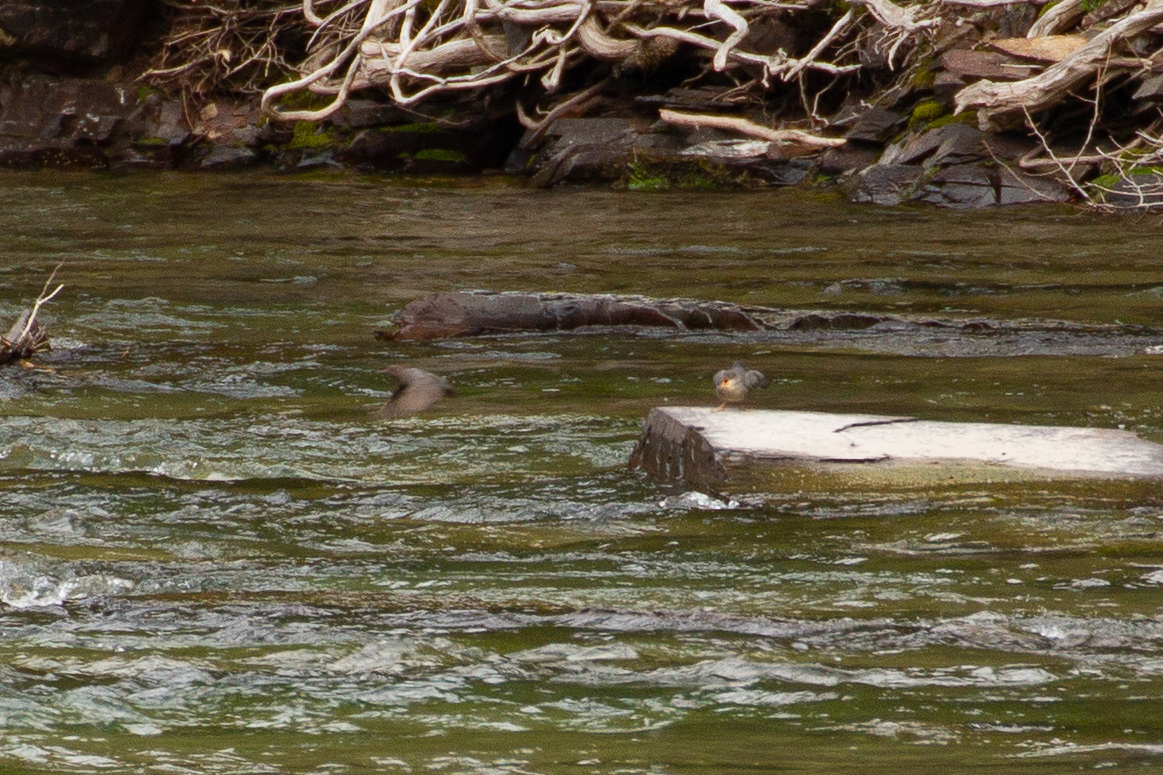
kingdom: Animalia
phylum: Chordata
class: Aves
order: Passeriformes
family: Cinclidae
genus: Cinclus
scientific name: Cinclus mexicanus
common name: American dipper
